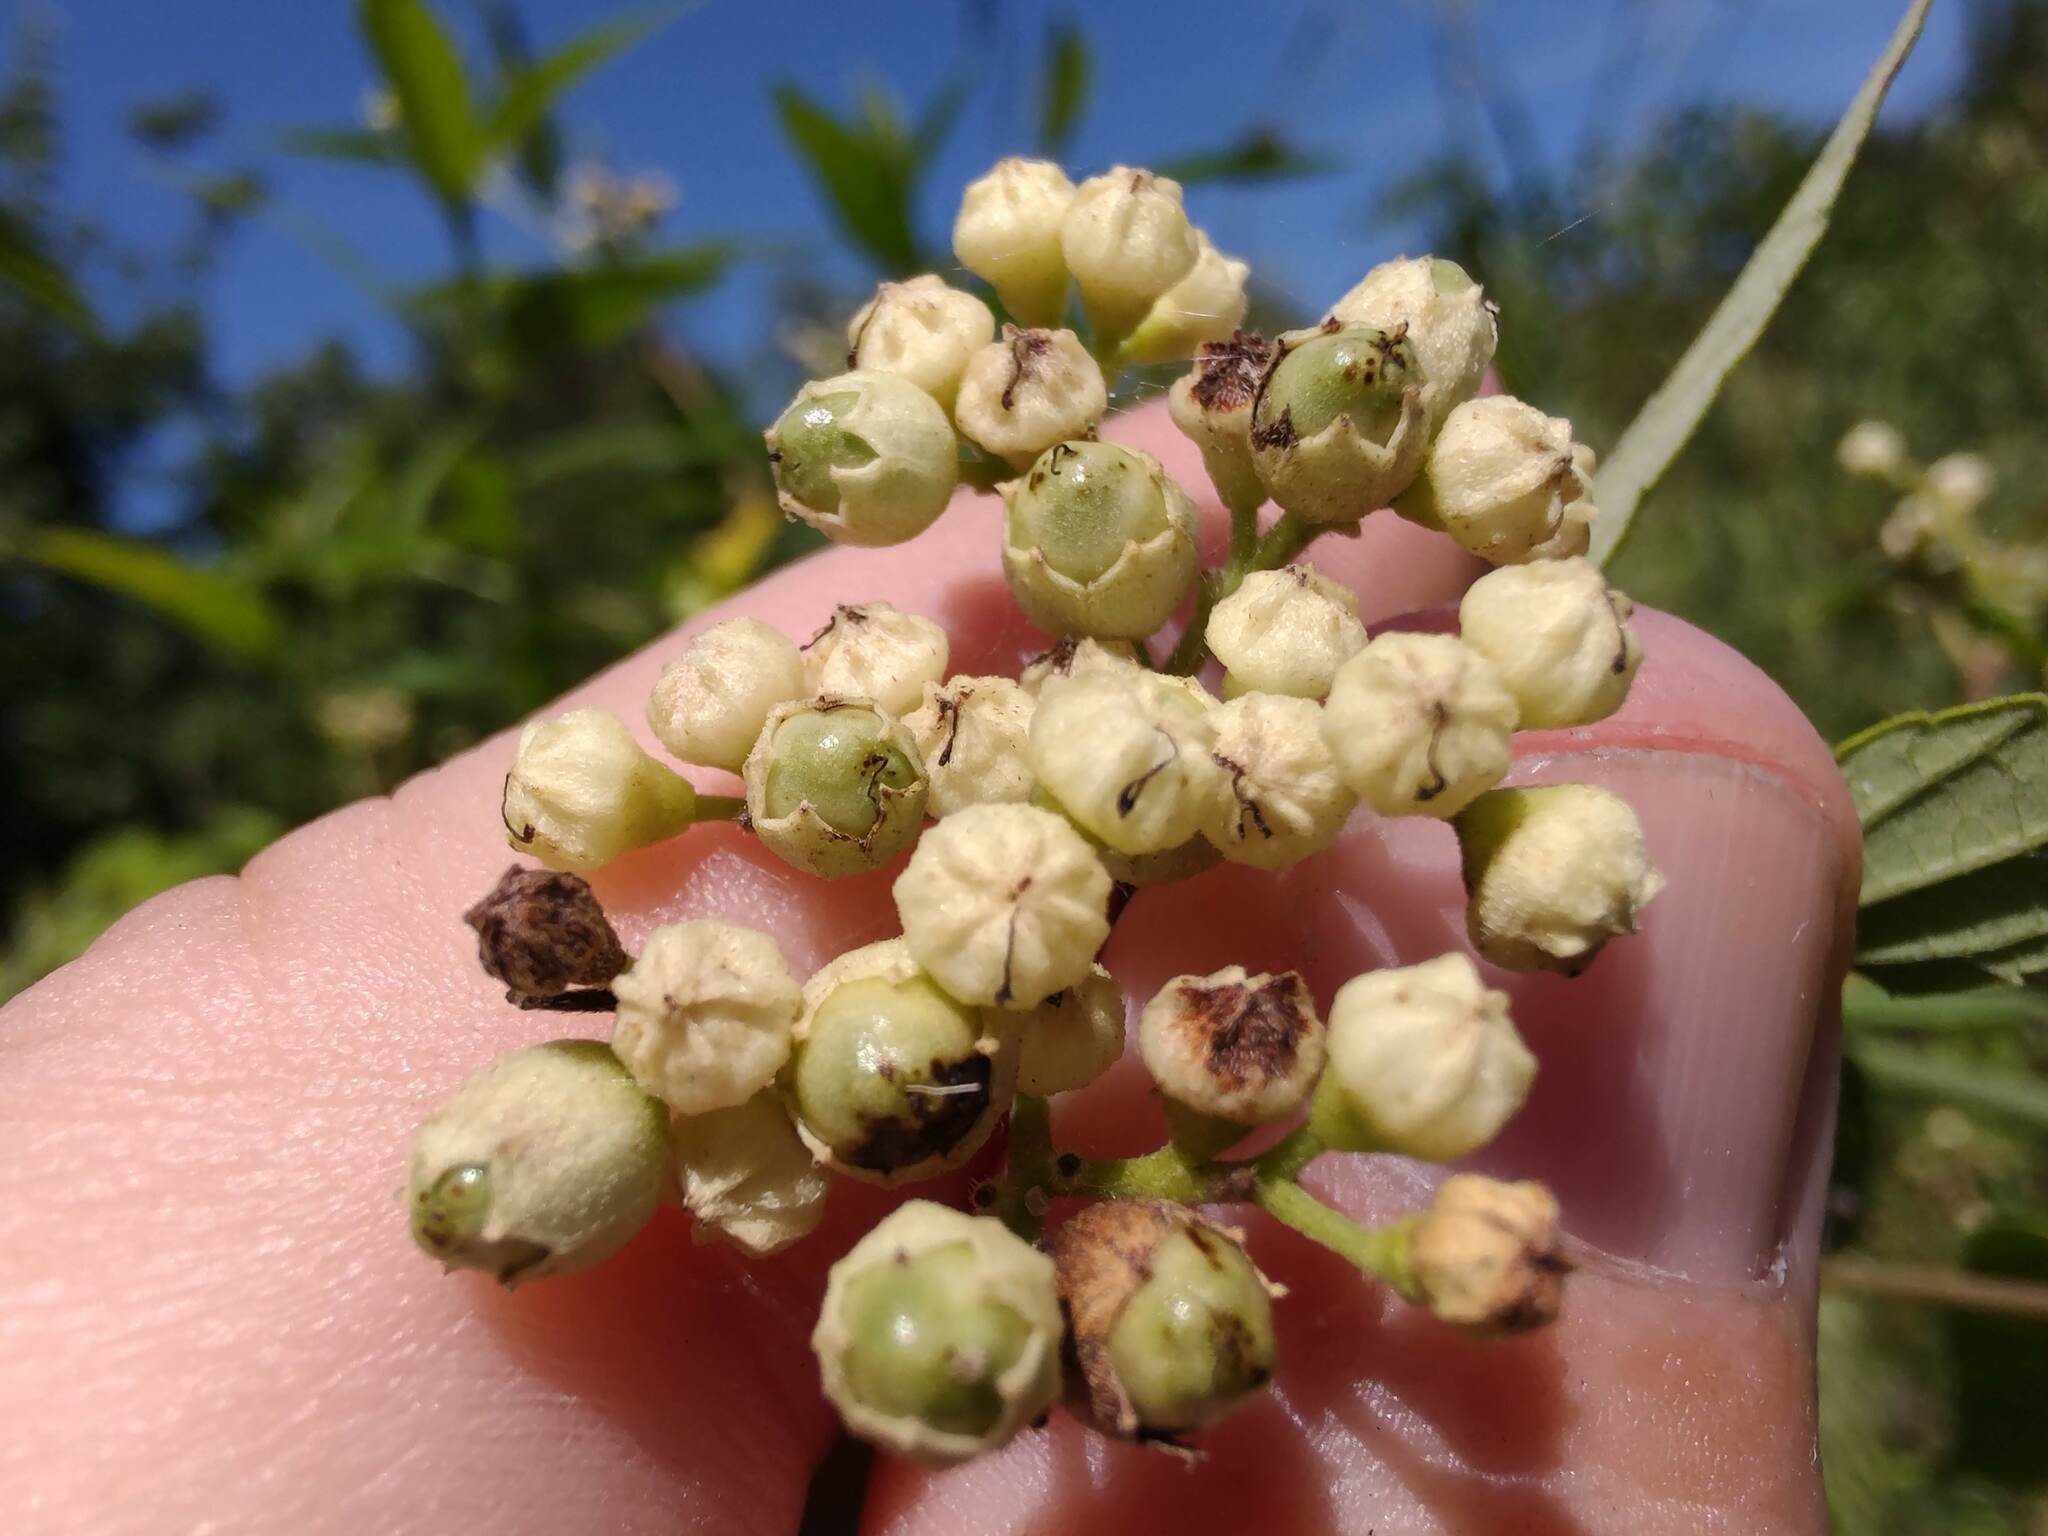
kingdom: Plantae
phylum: Tracheophyta
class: Magnoliopsida
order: Boraginales
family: Cordiaceae
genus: Varronia
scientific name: Varronia dichotoma
